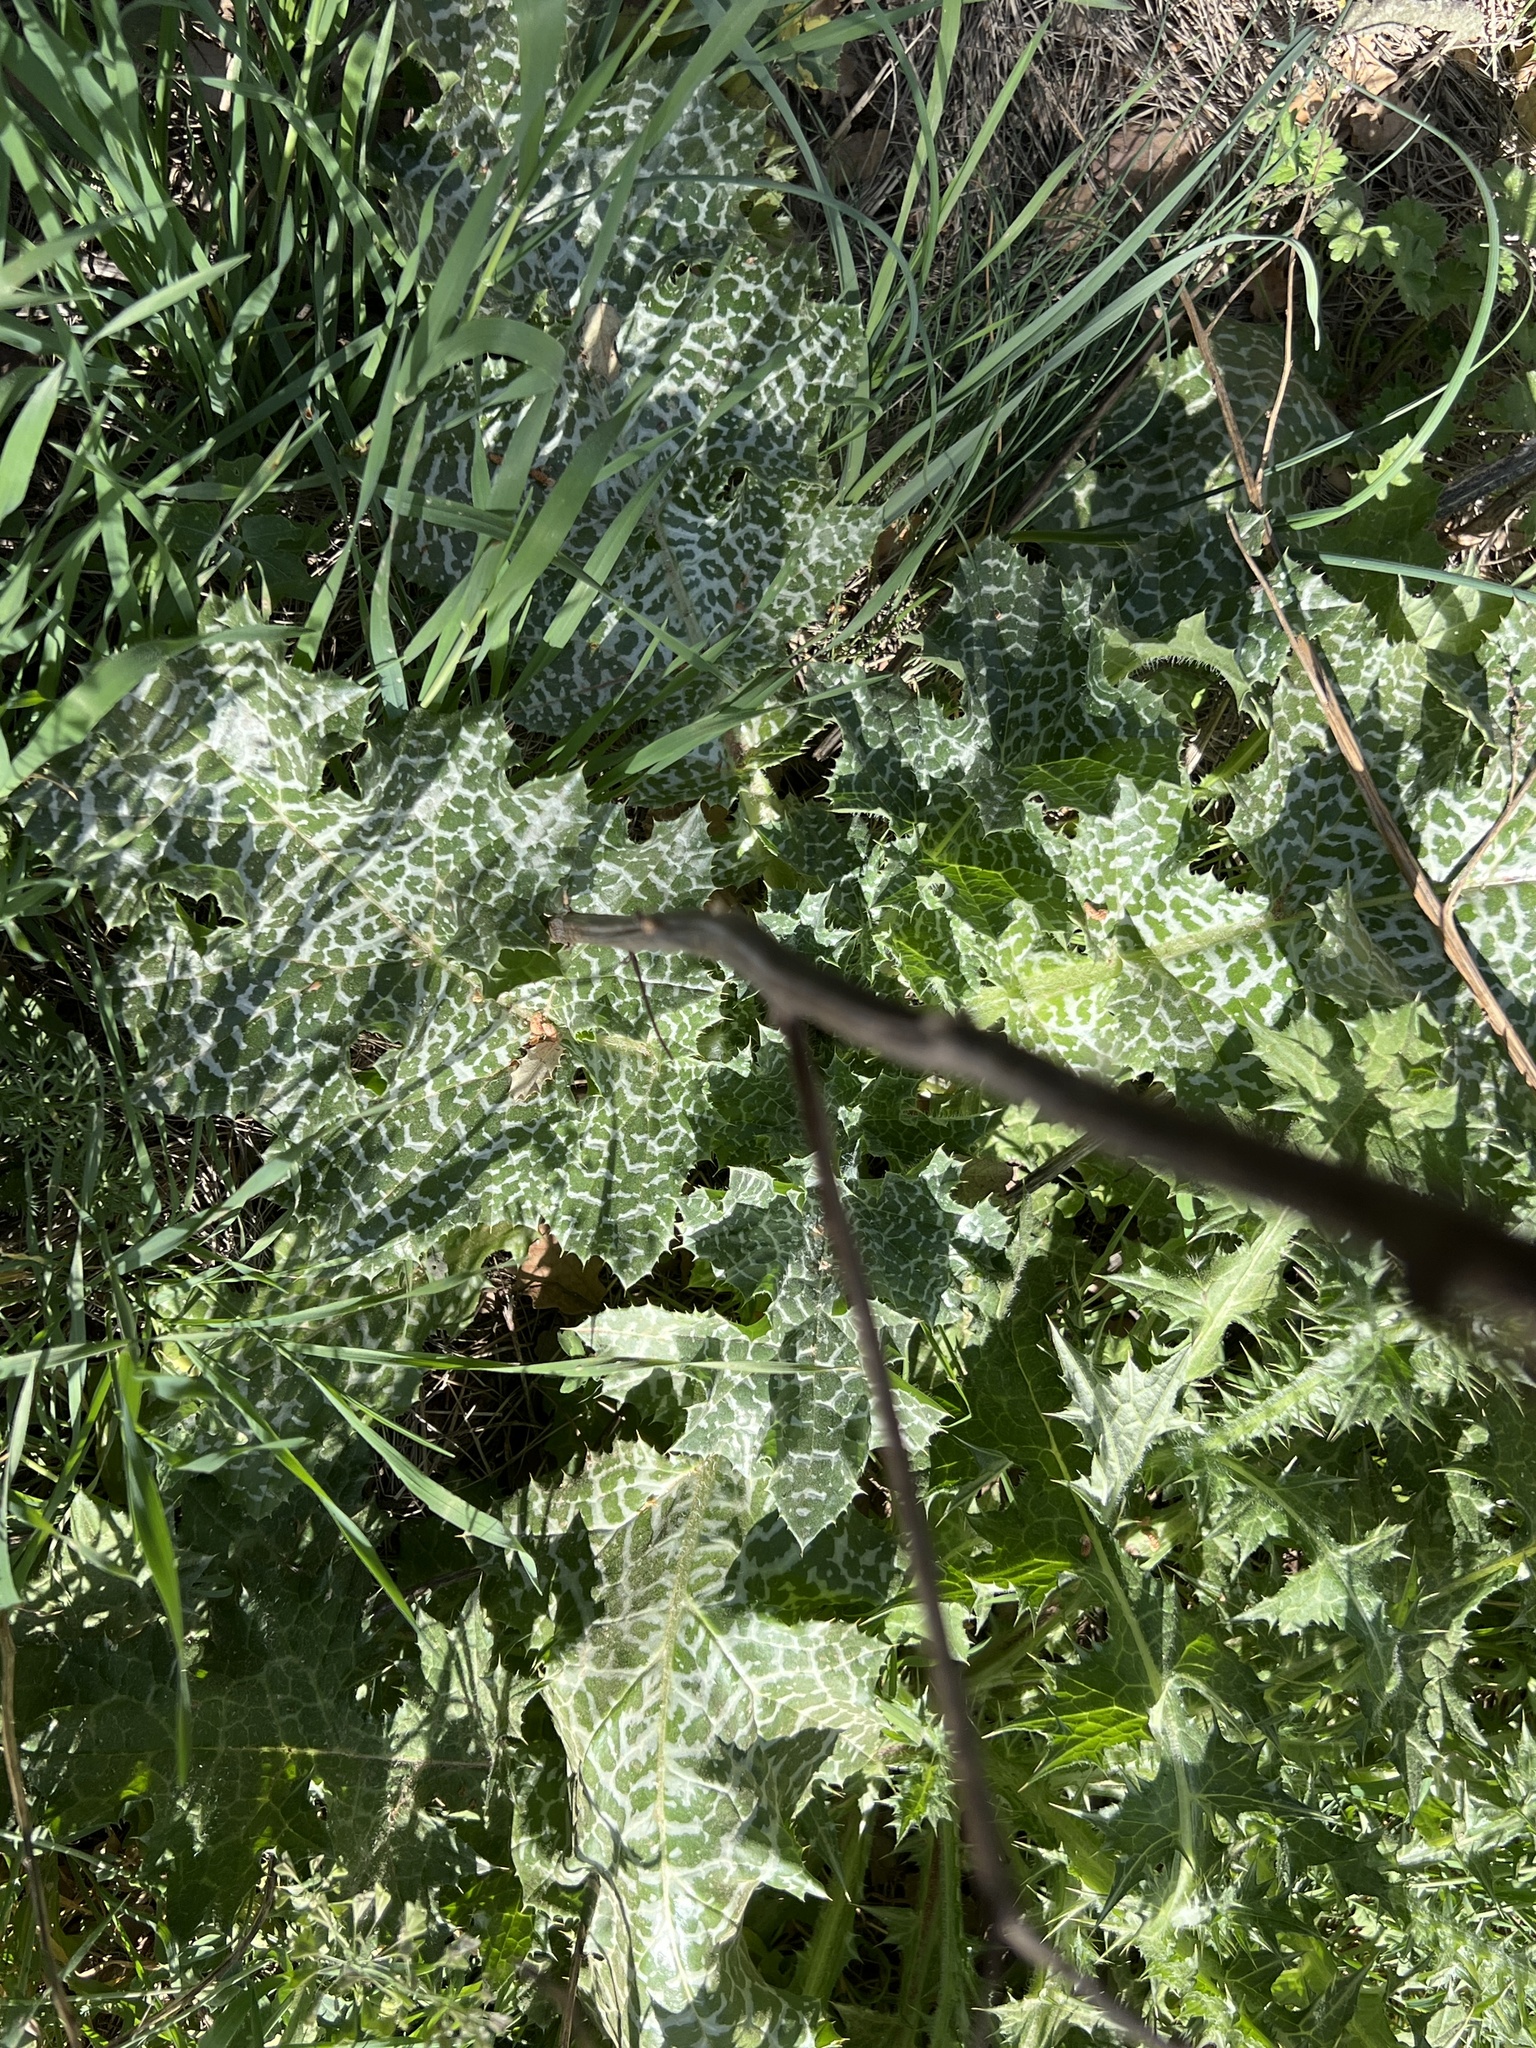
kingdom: Plantae
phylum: Tracheophyta
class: Magnoliopsida
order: Asterales
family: Asteraceae
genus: Silybum
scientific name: Silybum marianum
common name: Milk thistle
